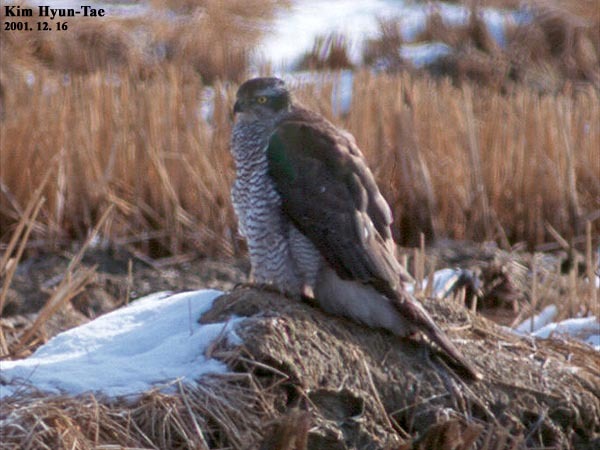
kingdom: Animalia
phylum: Chordata
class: Aves
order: Accipitriformes
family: Accipitridae
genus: Accipiter
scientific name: Accipiter gentilis
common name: Northern goshawk
